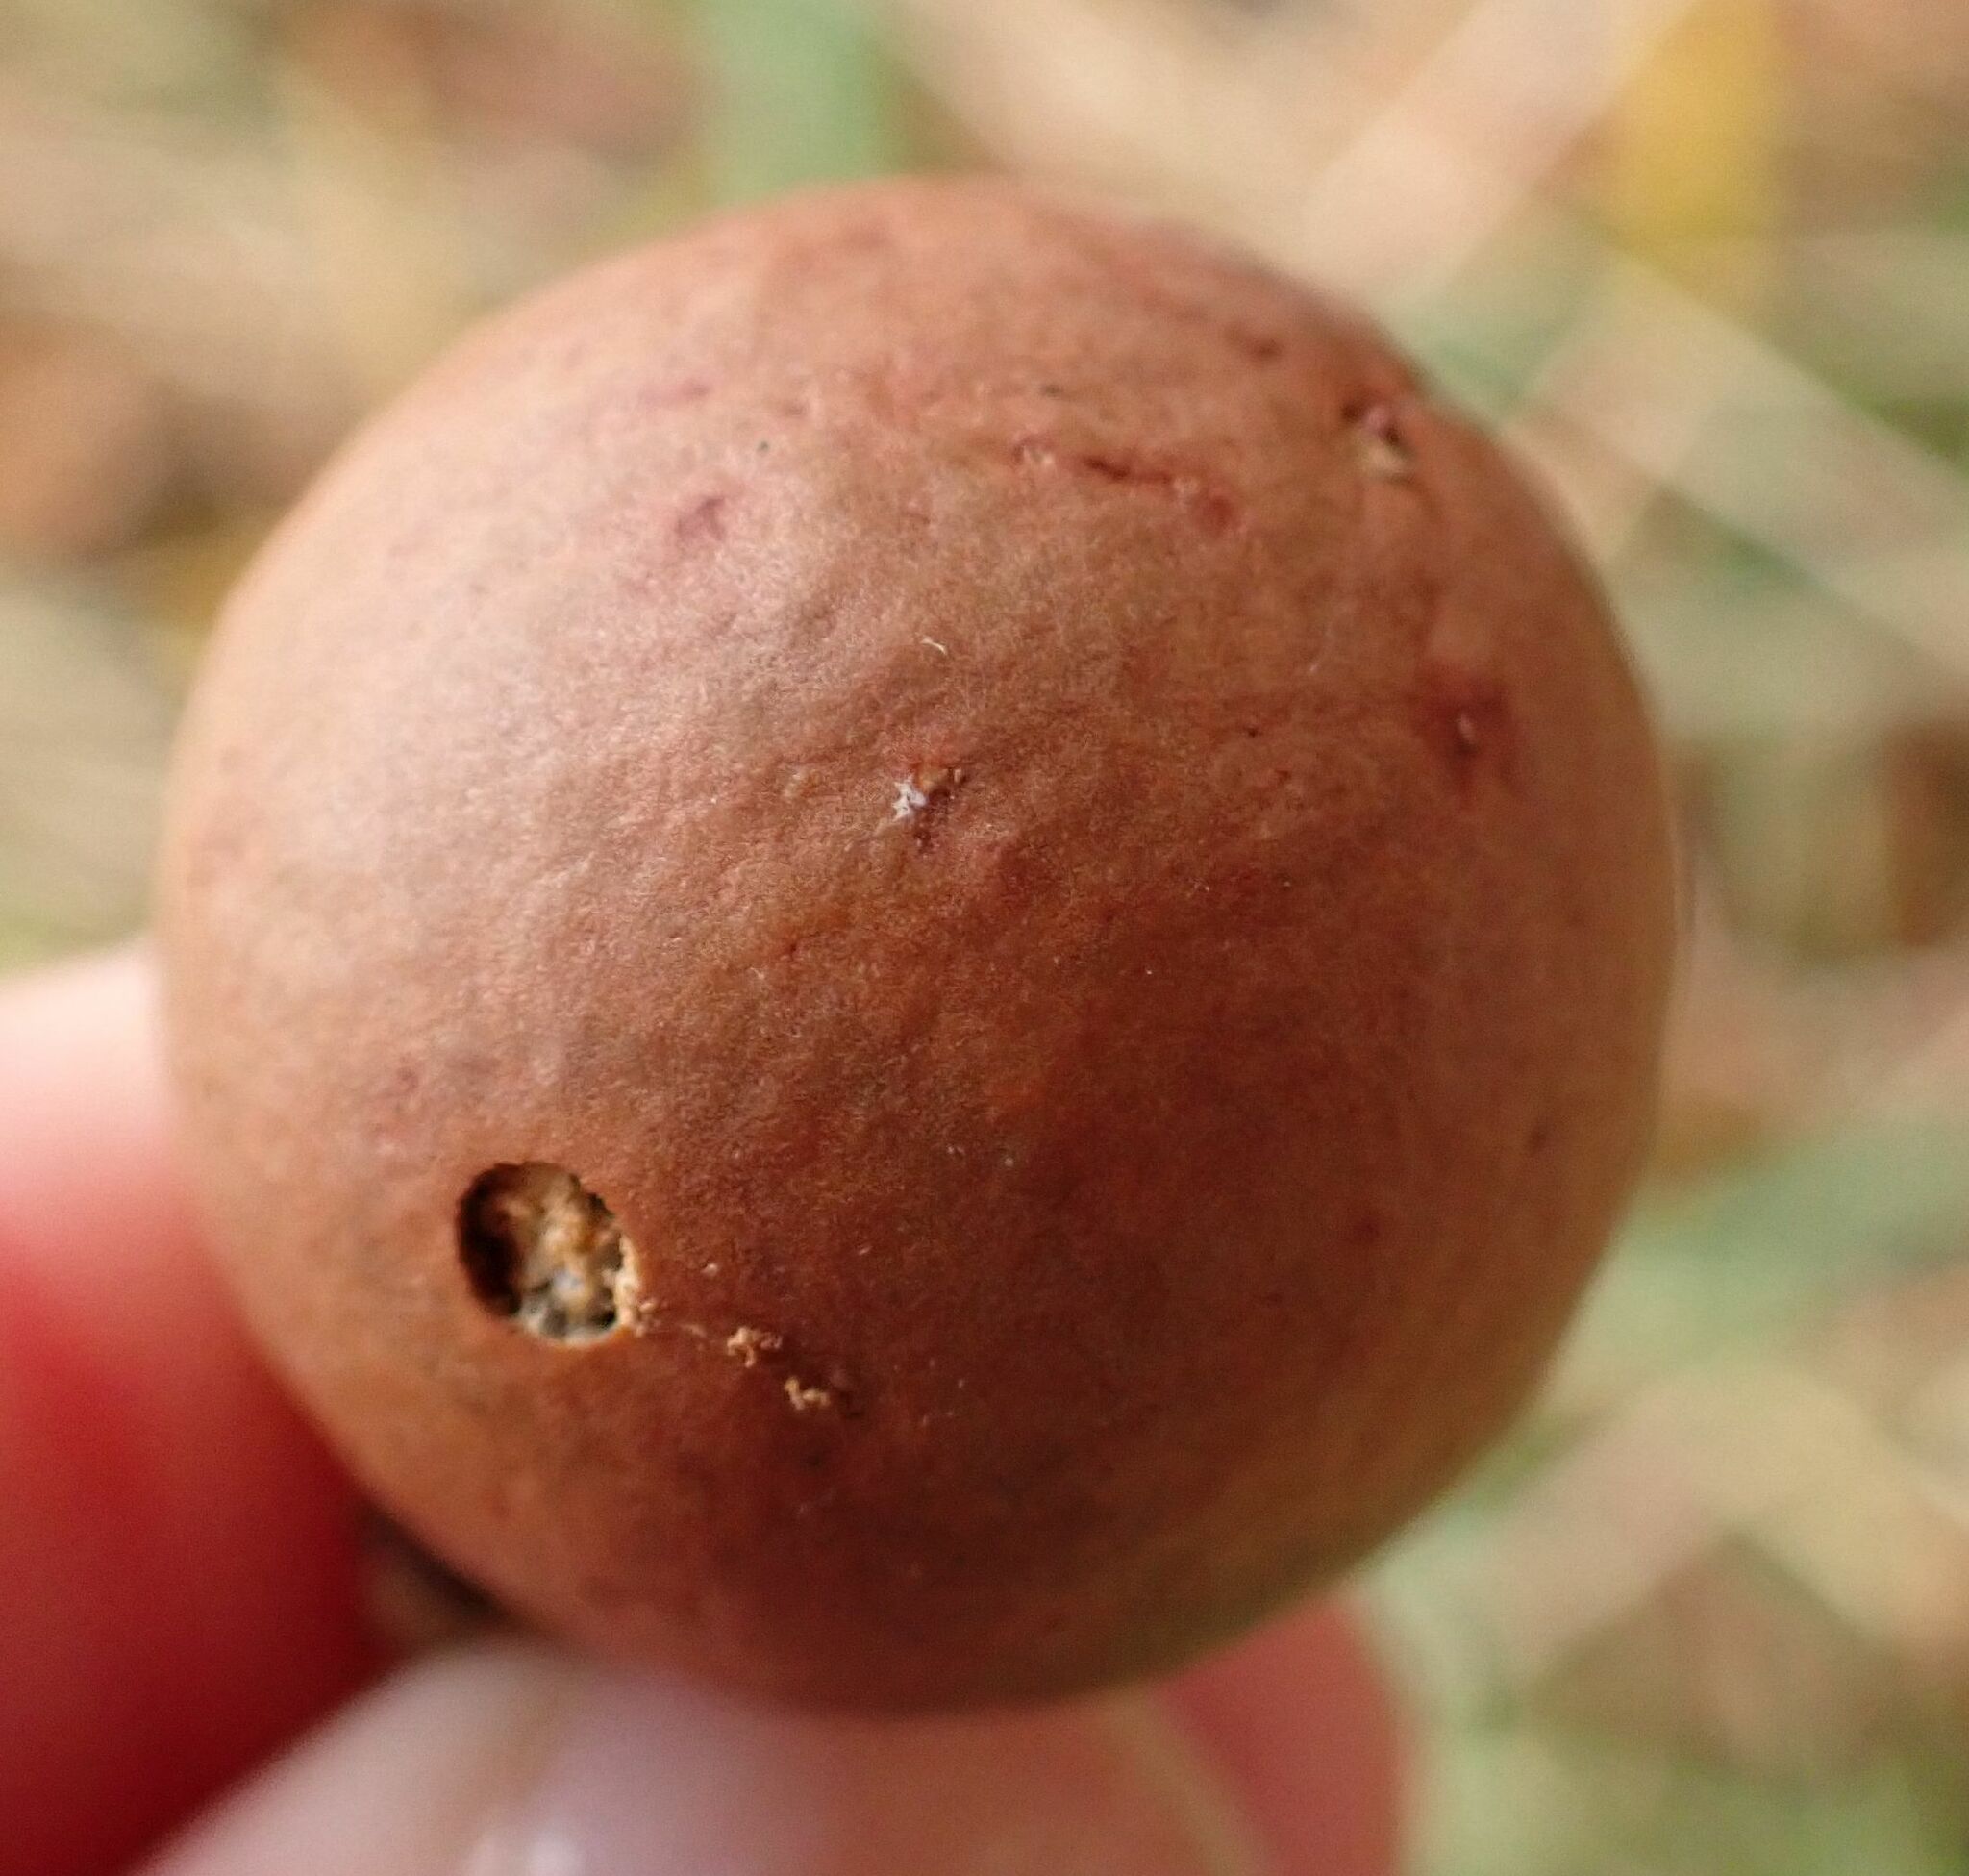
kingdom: Animalia
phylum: Arthropoda
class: Insecta
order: Hymenoptera
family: Cynipidae
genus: Andricus
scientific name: Andricus kollari
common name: Marble gall
